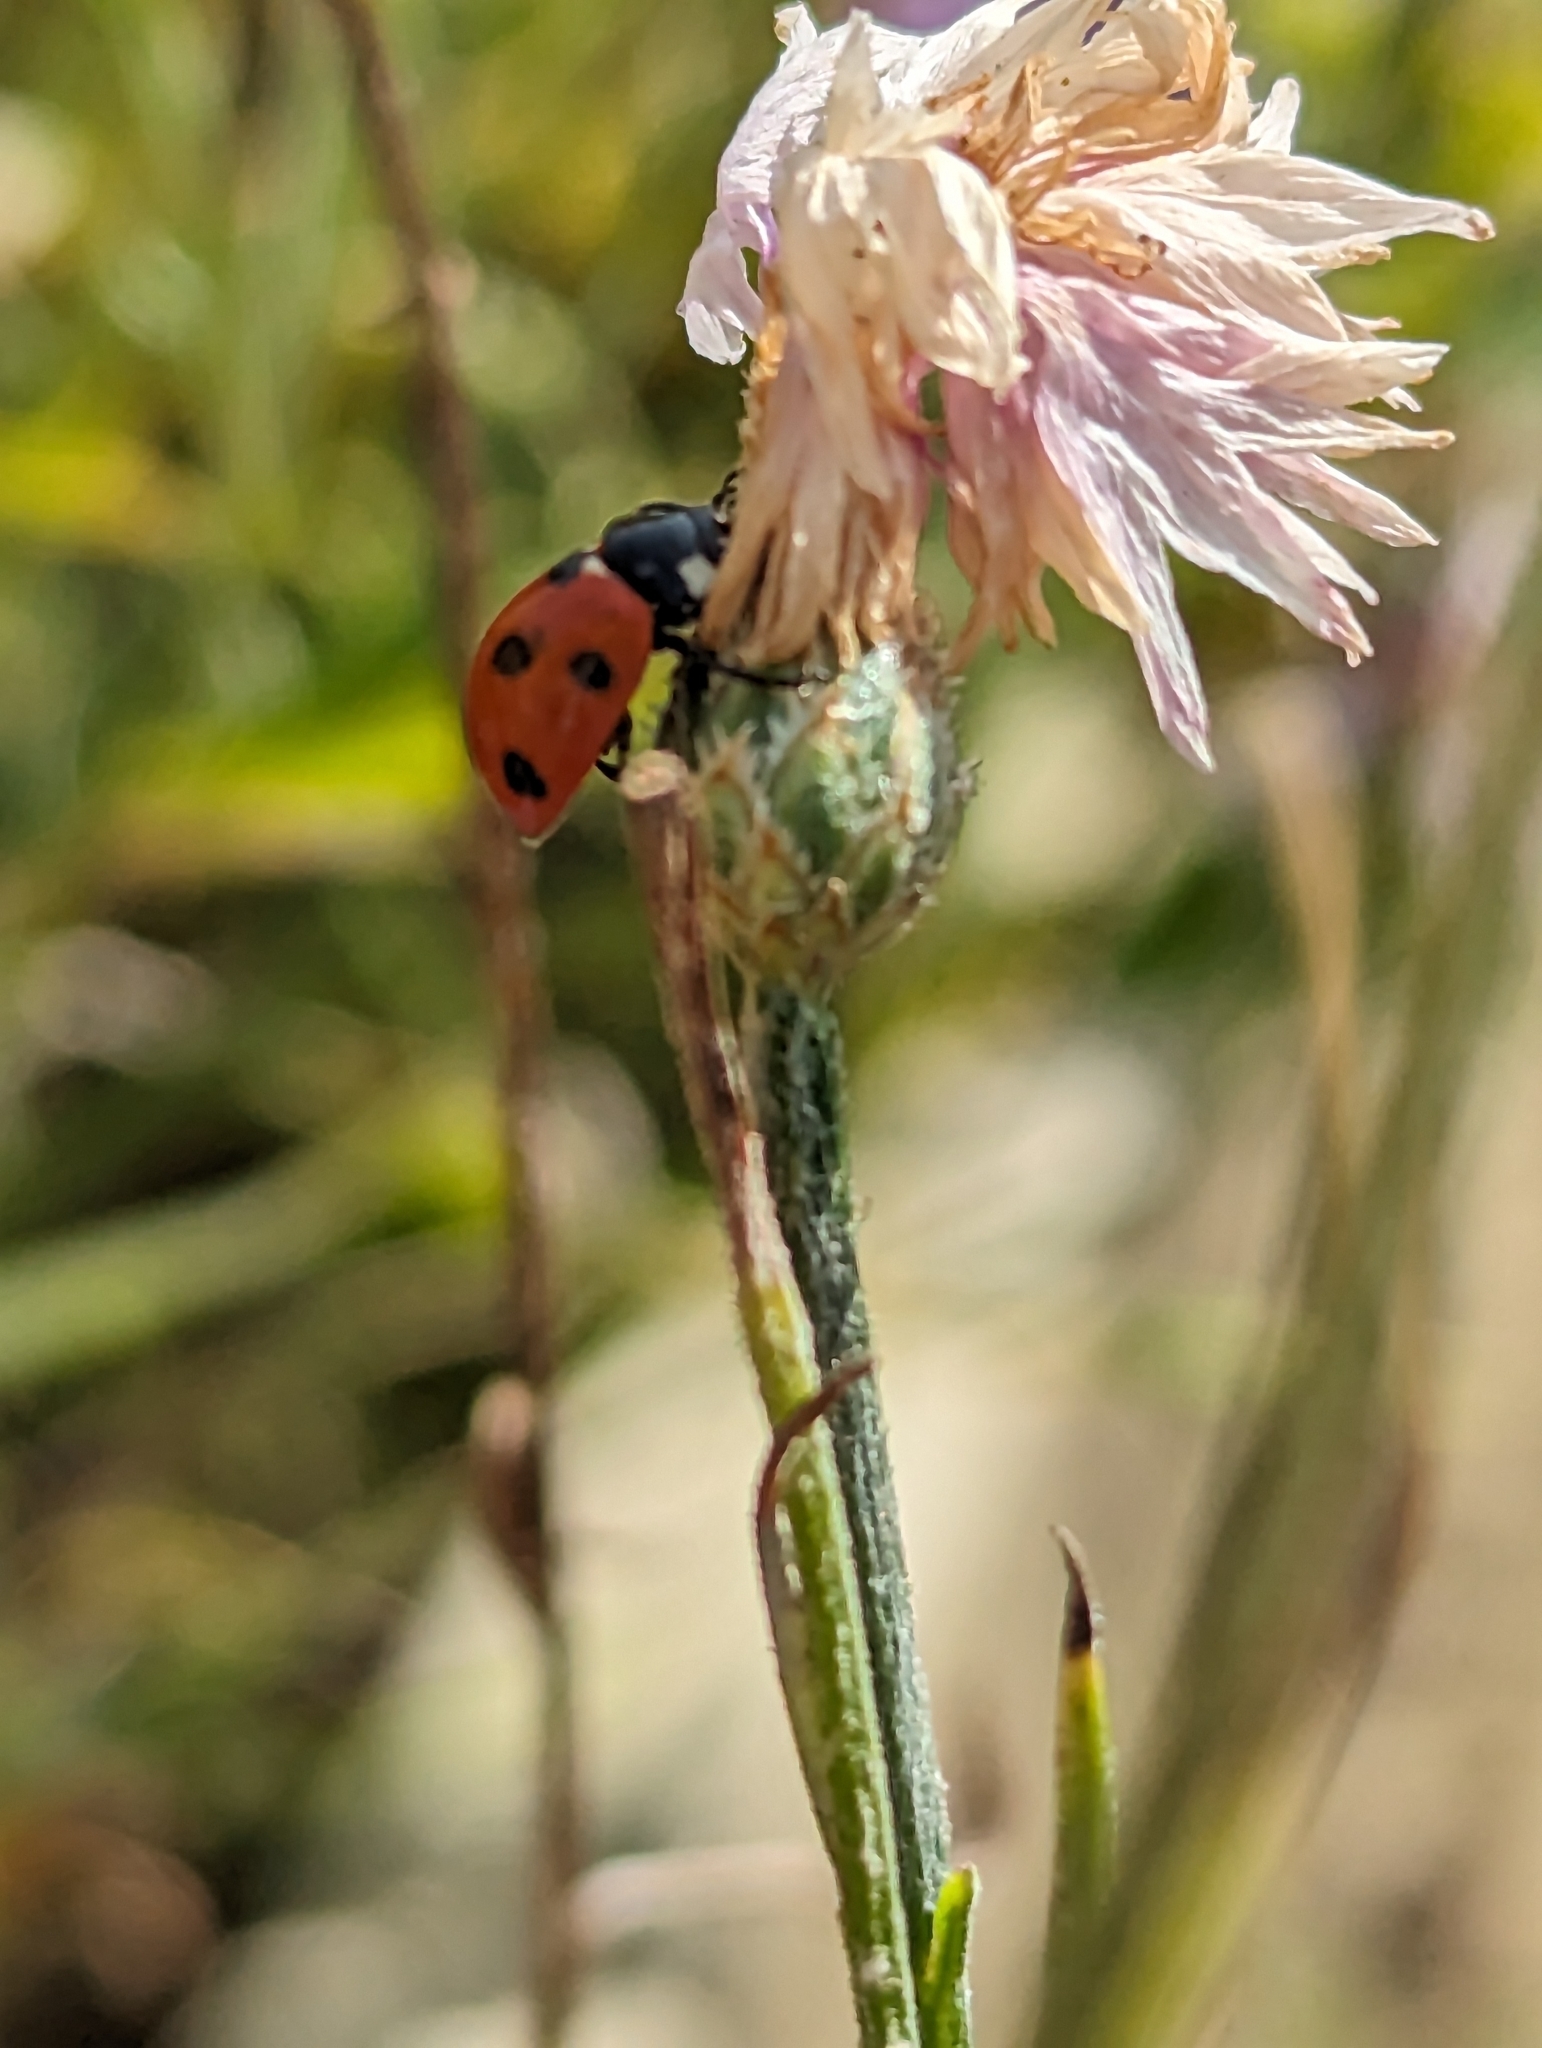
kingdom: Animalia
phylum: Arthropoda
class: Insecta
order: Coleoptera
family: Coccinellidae
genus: Coccinella
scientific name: Coccinella septempunctata
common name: Sevenspotted lady beetle
